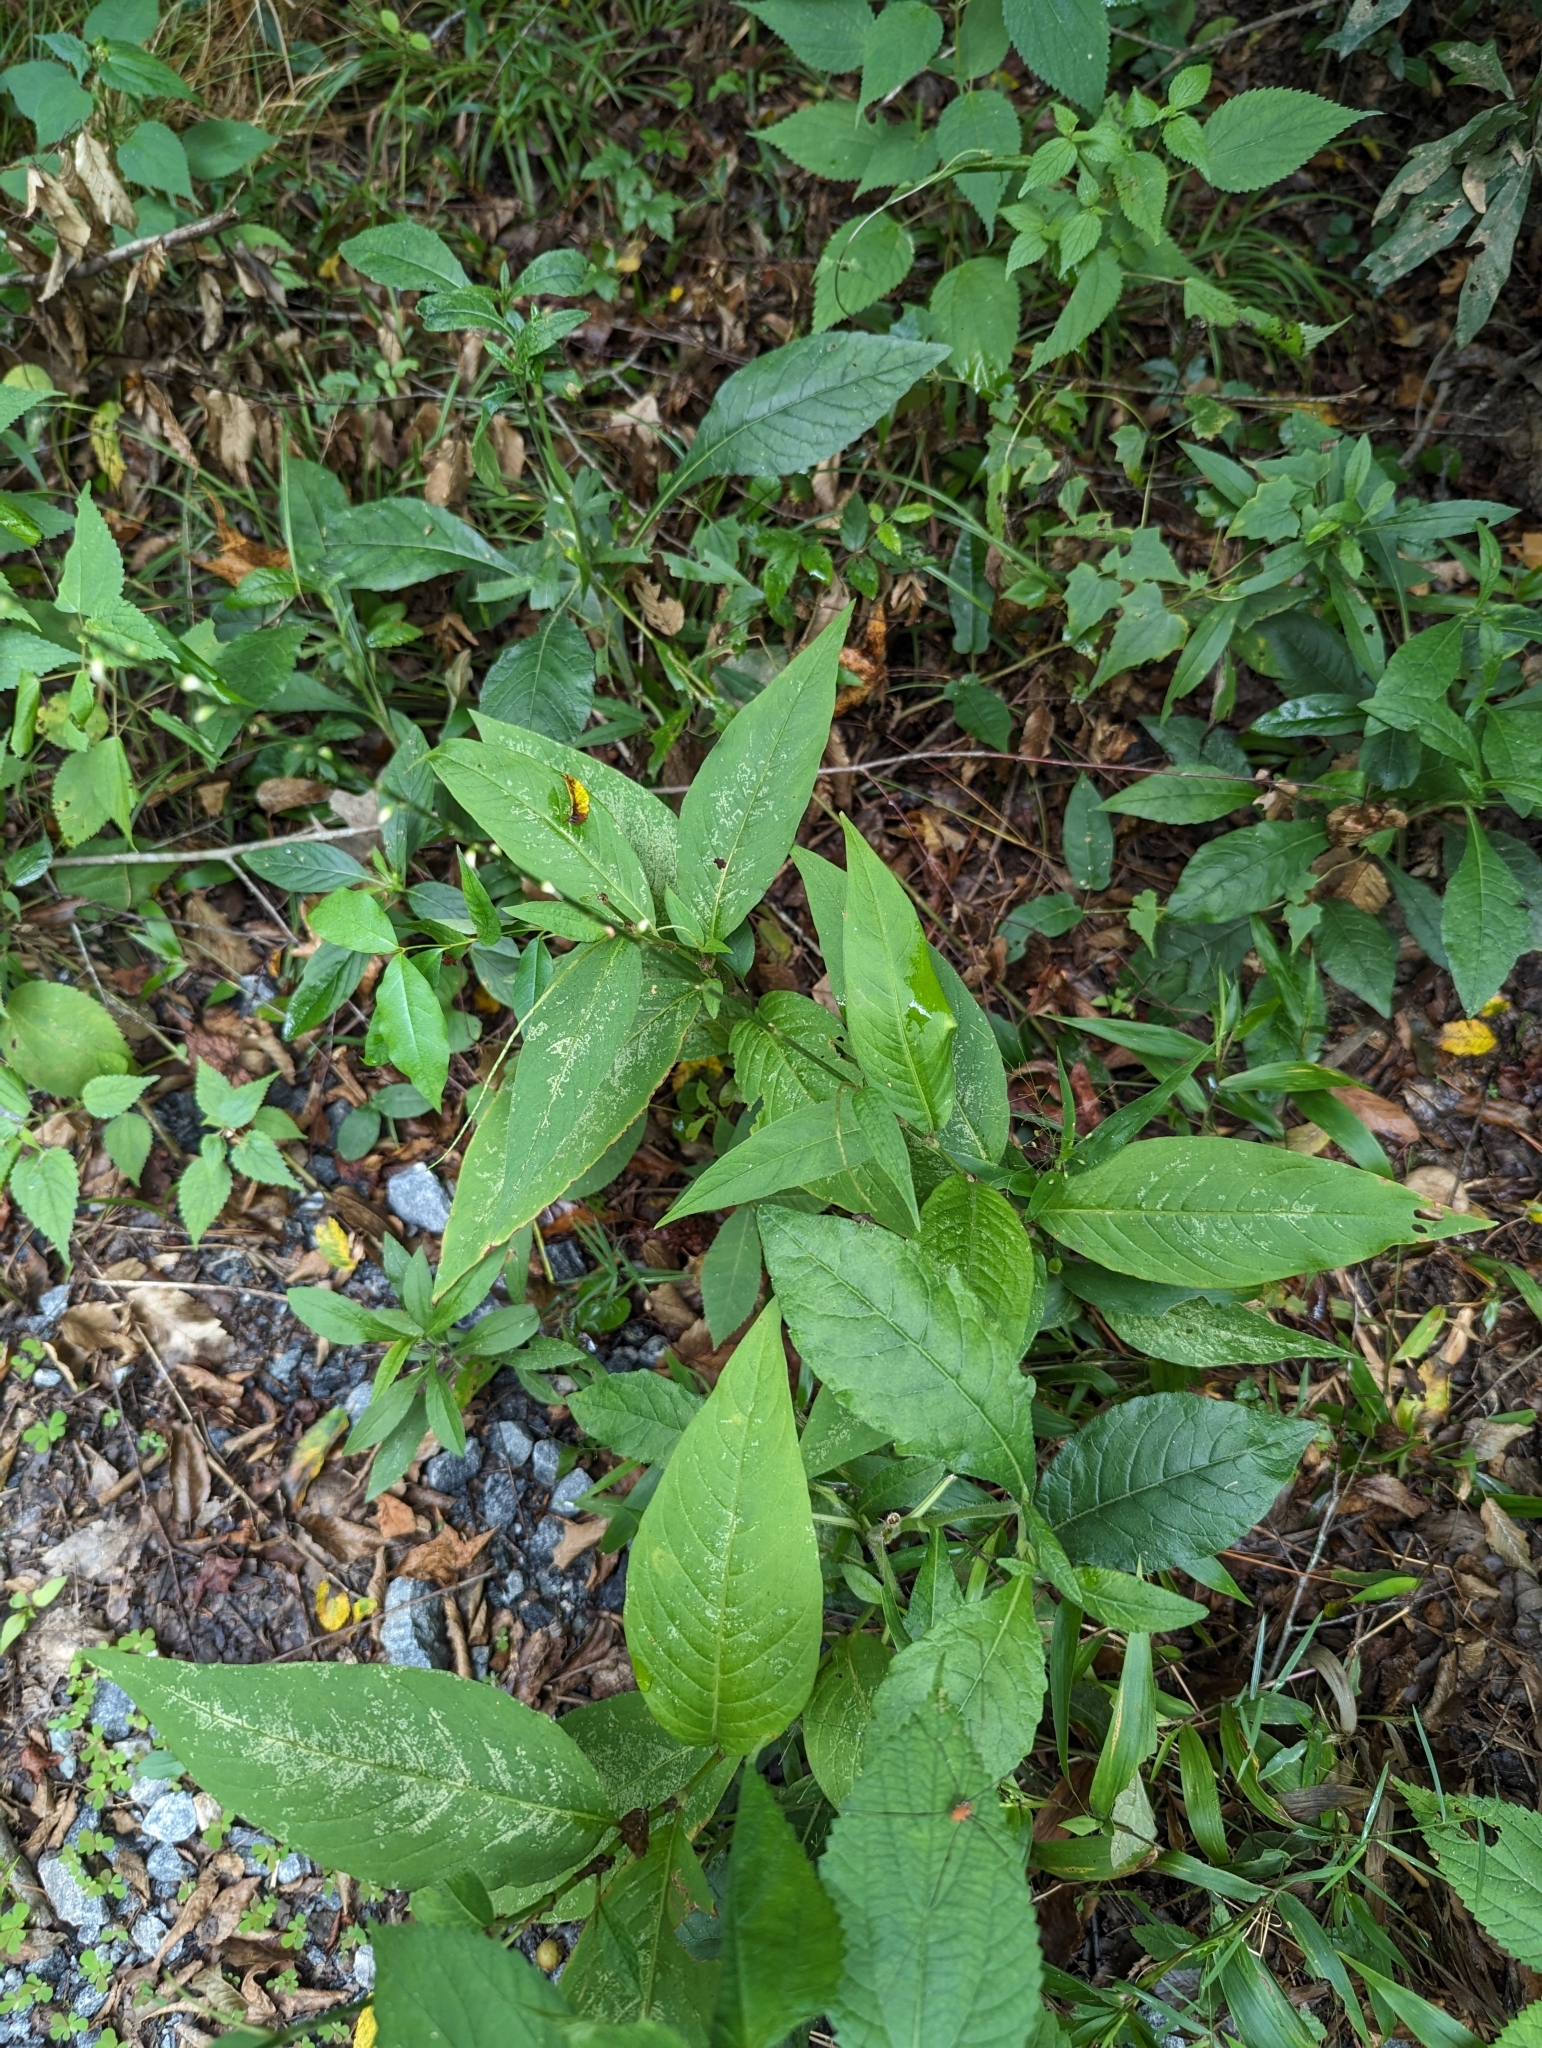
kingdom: Plantae
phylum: Tracheophyta
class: Magnoliopsida
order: Caryophyllales
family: Polygonaceae
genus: Persicaria
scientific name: Persicaria virginiana
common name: Jumpseed
